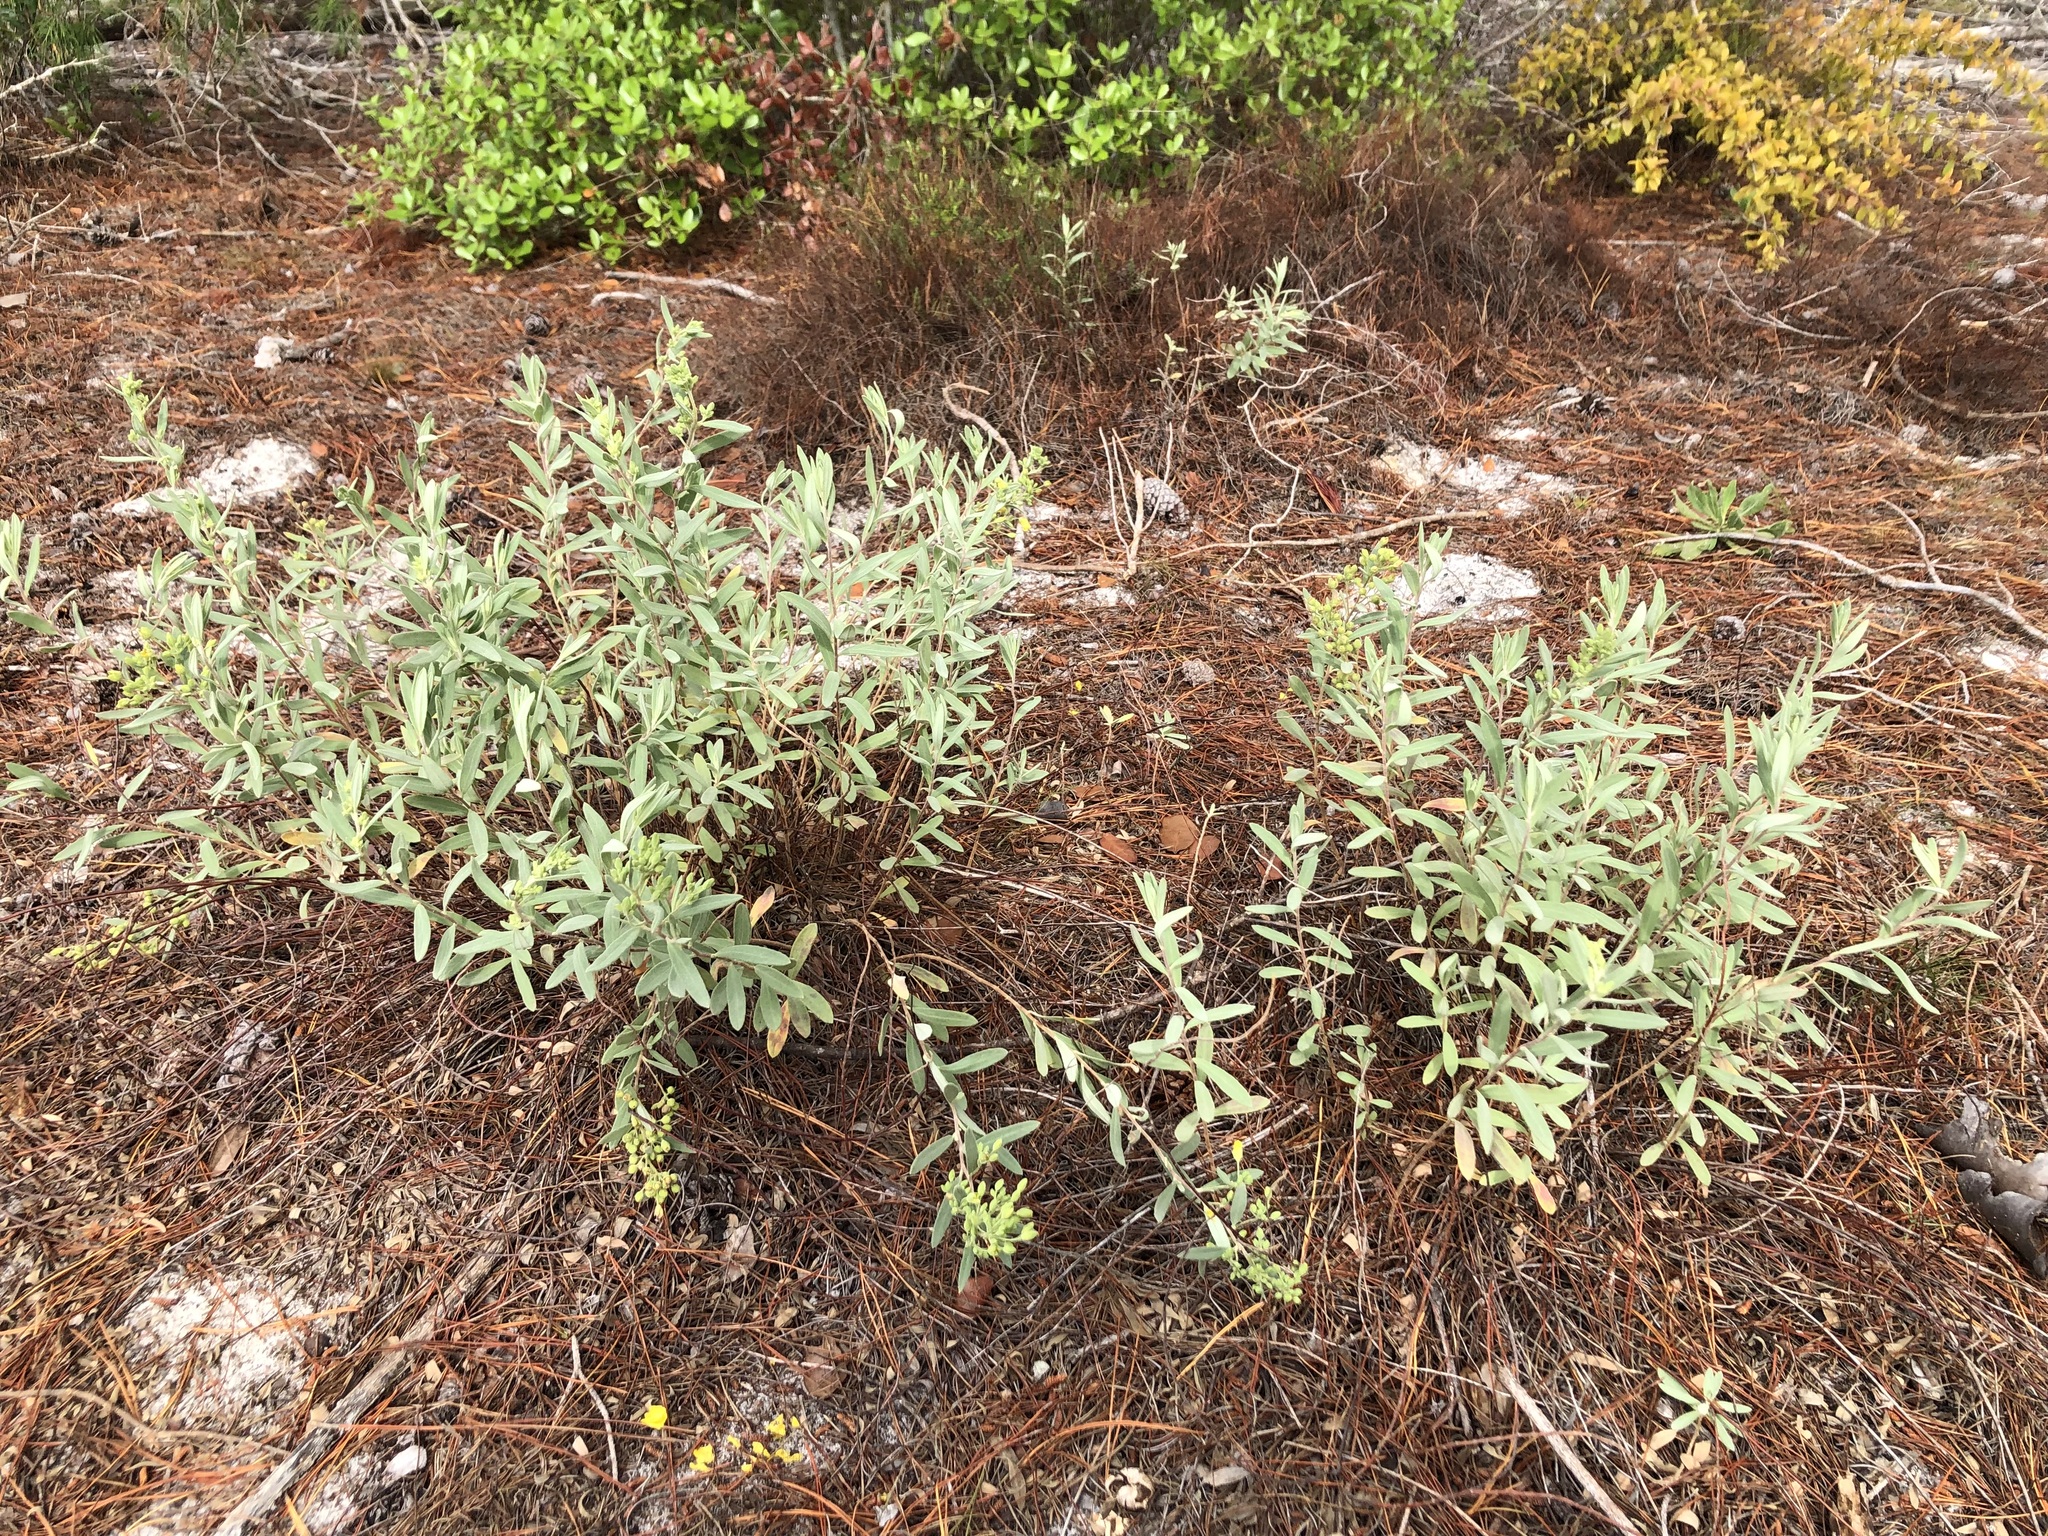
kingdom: Plantae
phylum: Tracheophyta
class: Magnoliopsida
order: Malvales
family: Cistaceae
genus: Crocanthemum
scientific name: Crocanthemum nashii
